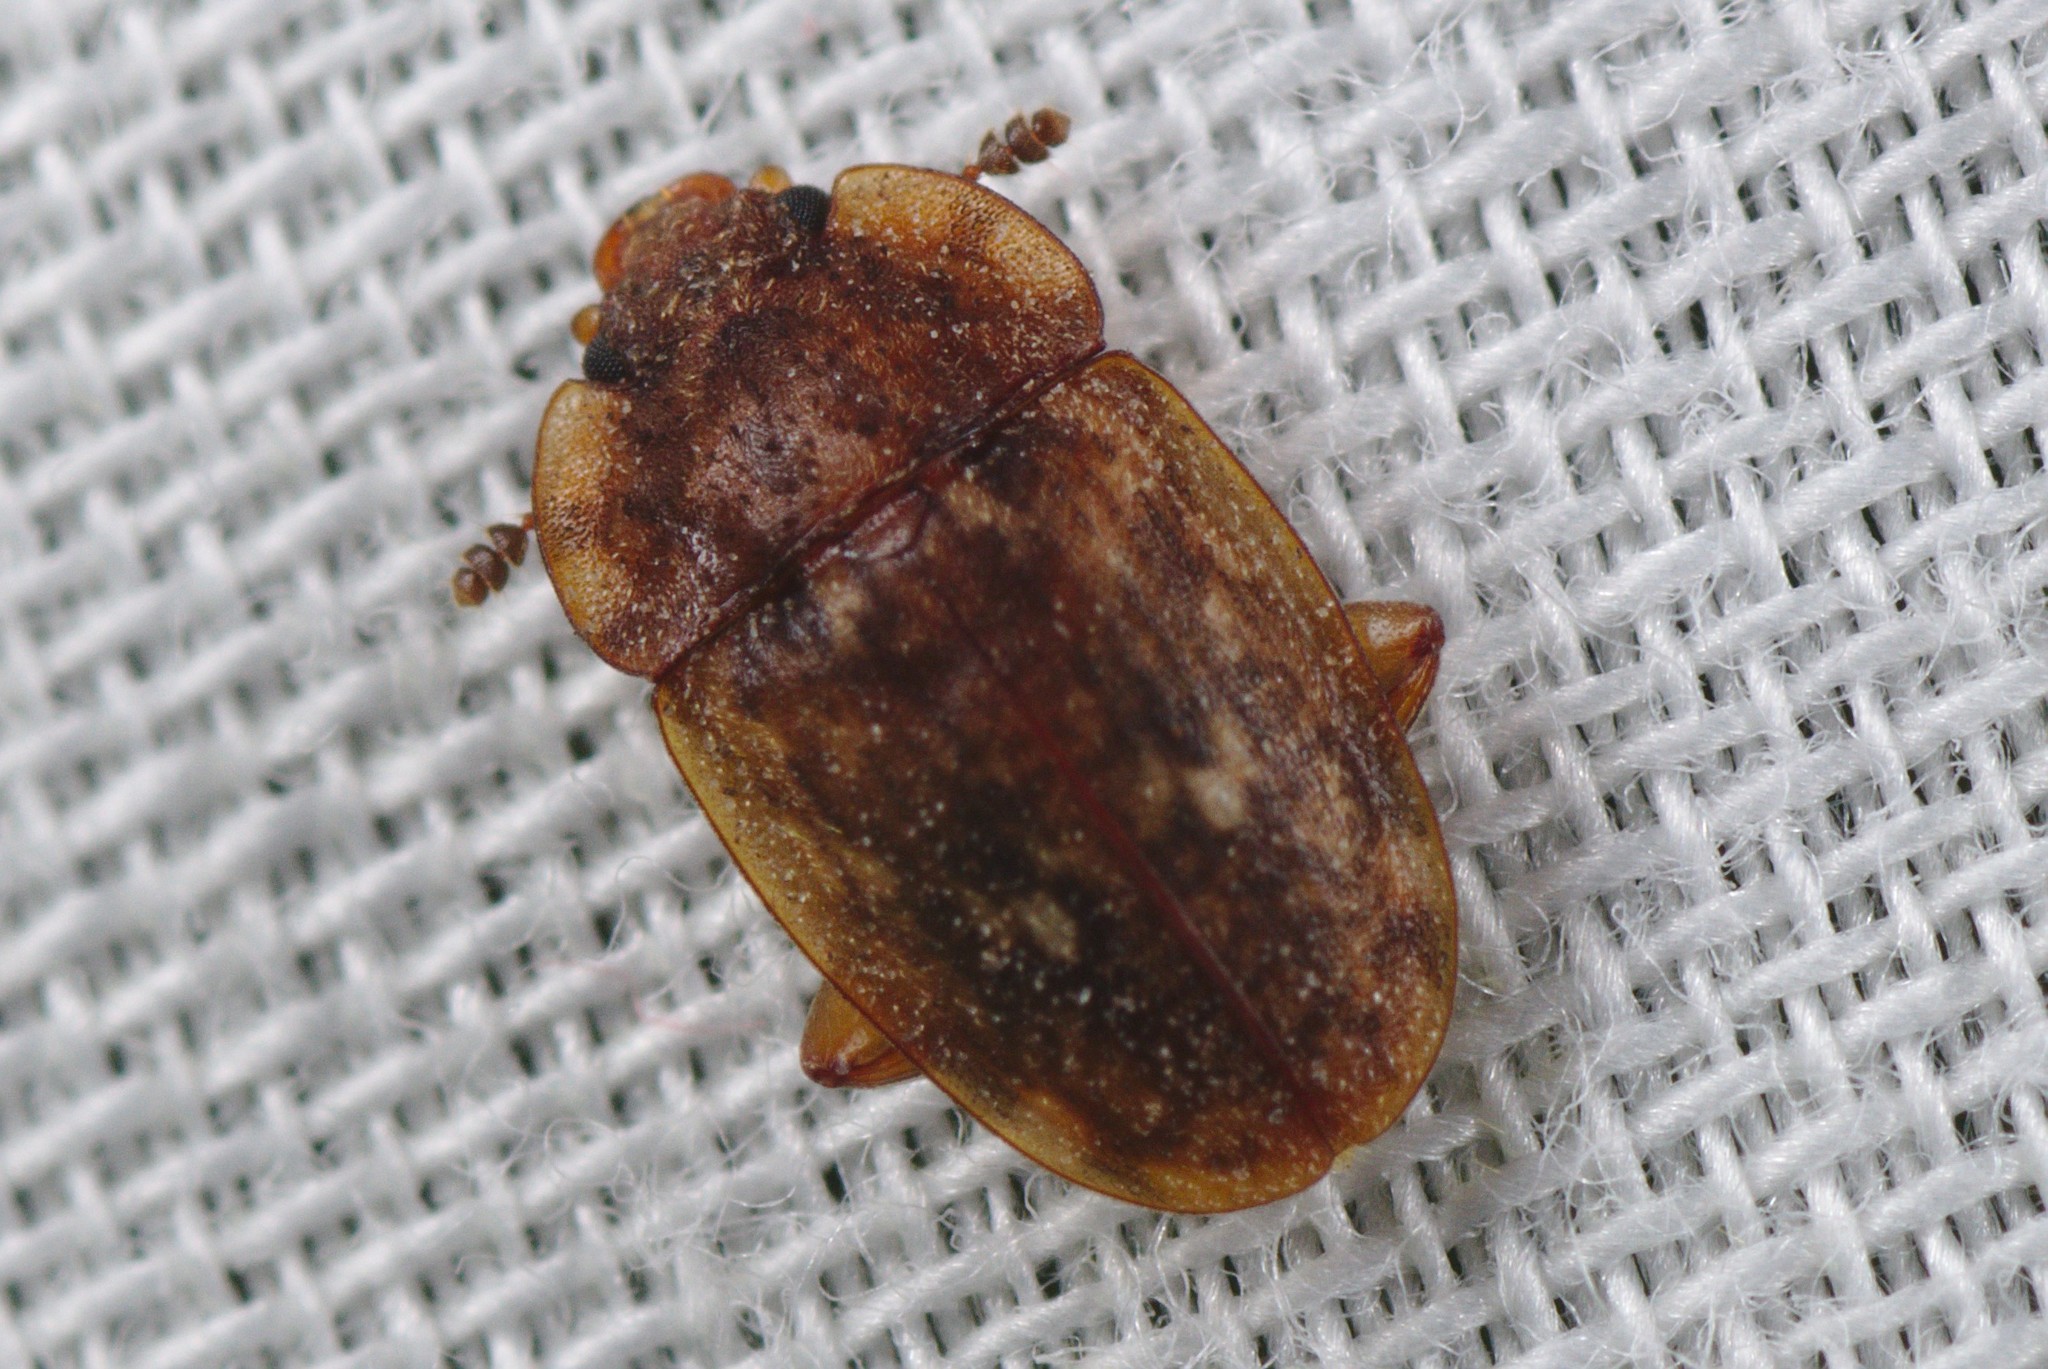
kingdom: Animalia
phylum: Arthropoda
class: Insecta
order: Coleoptera
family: Nitidulidae
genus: Soronia
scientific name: Soronia
